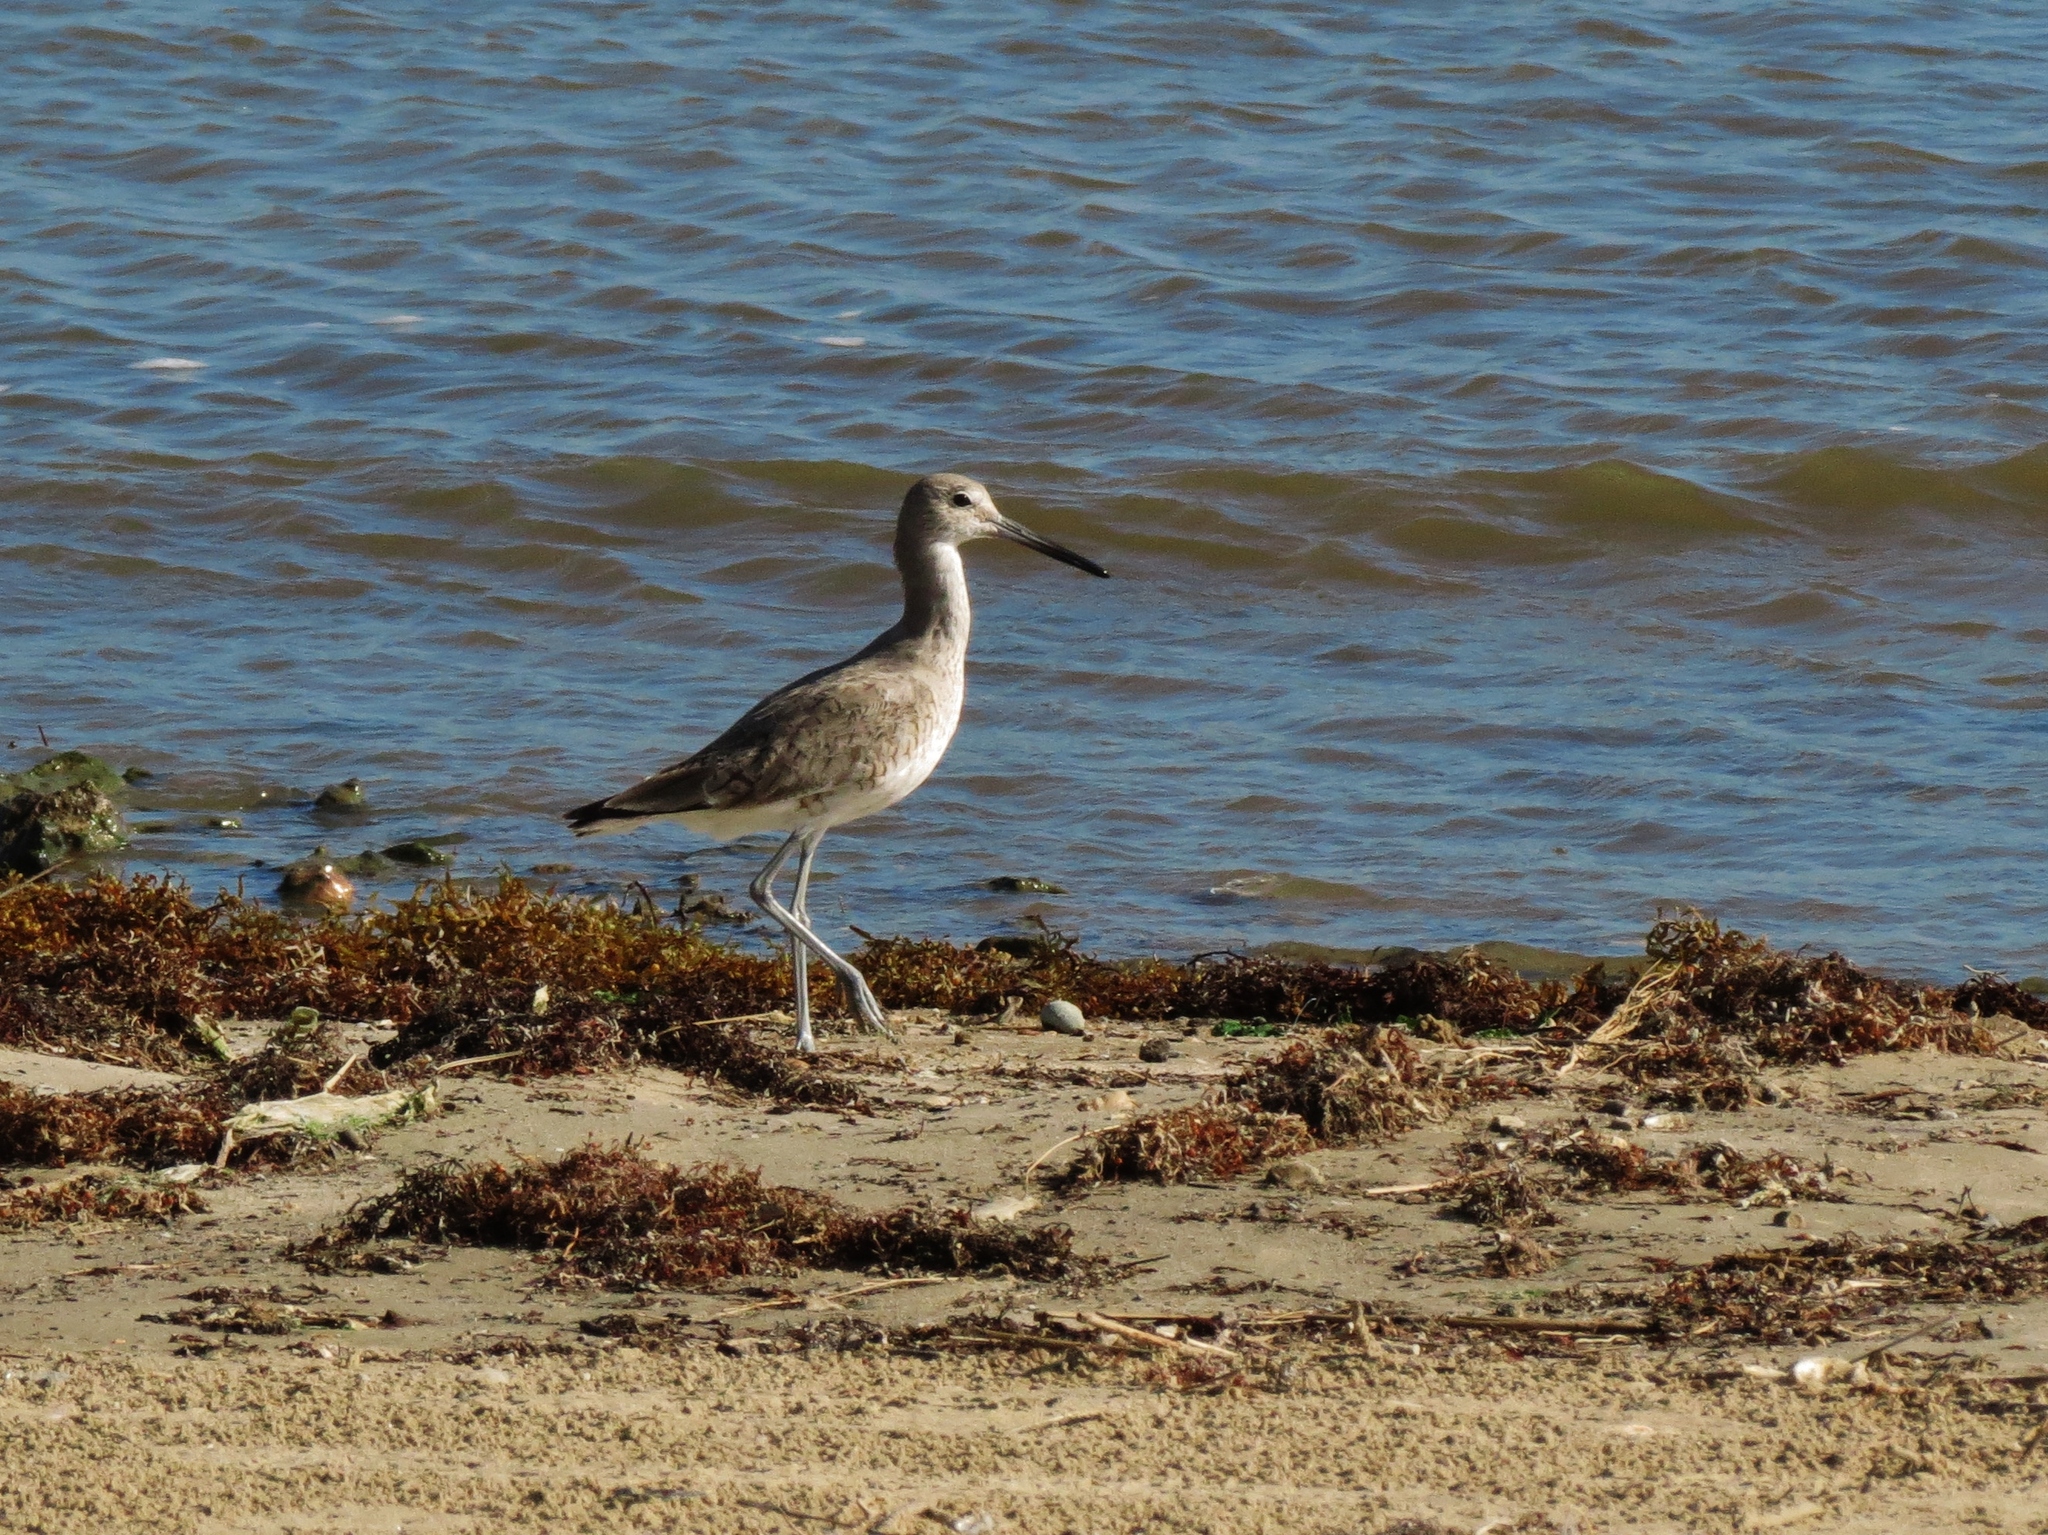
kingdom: Animalia
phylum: Chordata
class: Aves
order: Charadriiformes
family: Scolopacidae
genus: Tringa
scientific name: Tringa semipalmata
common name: Willet
